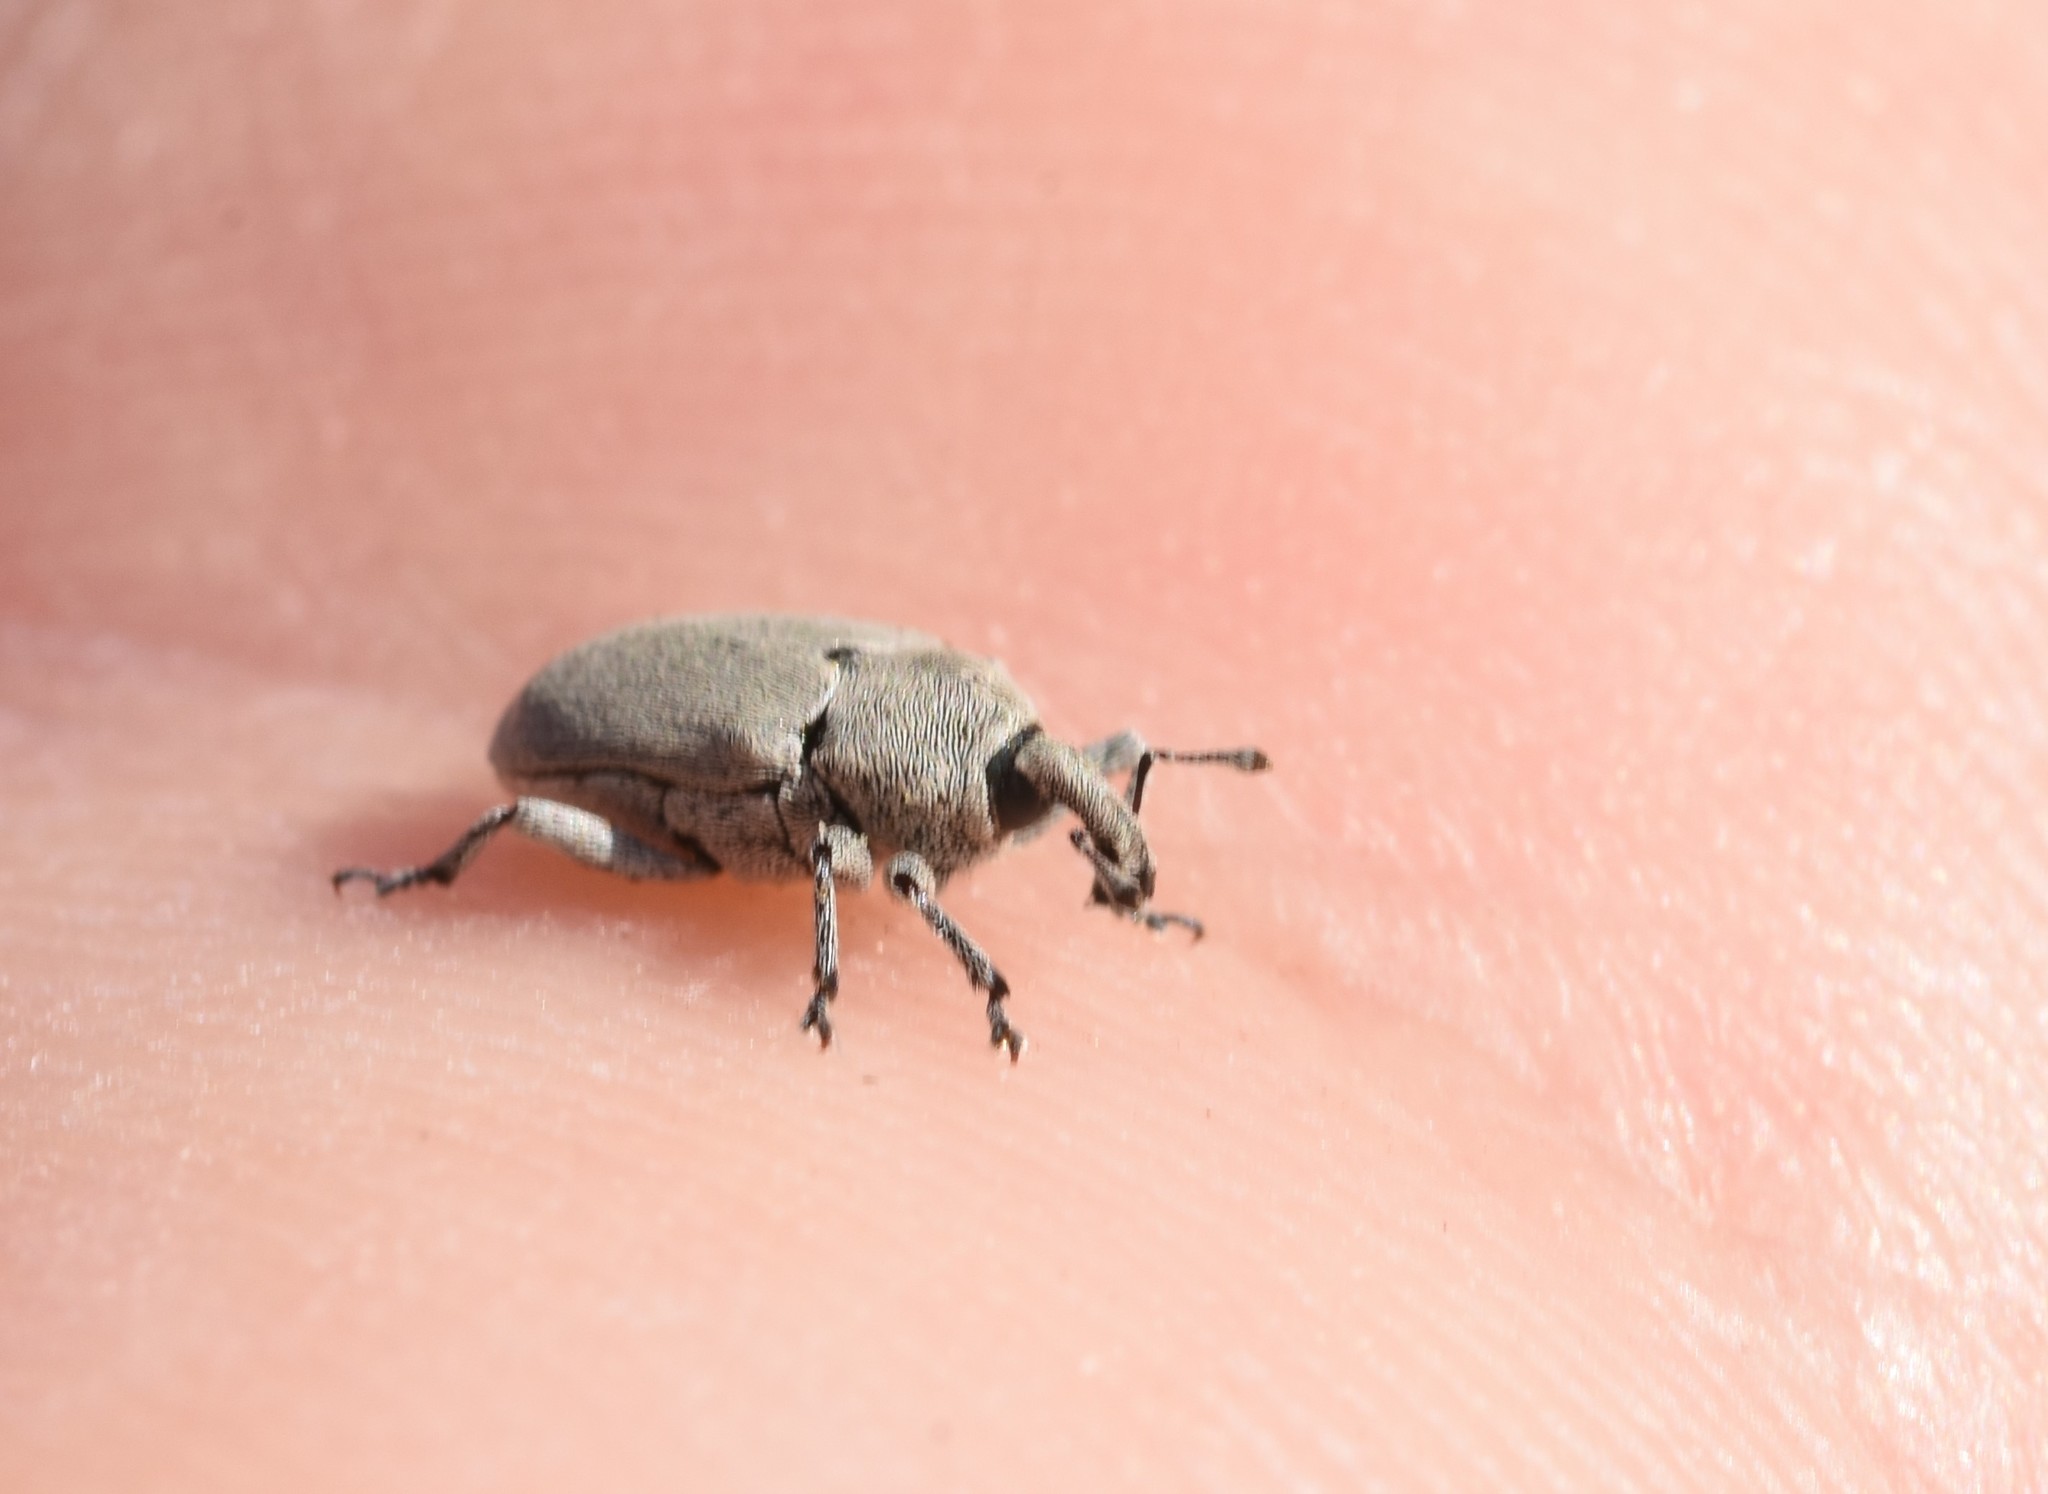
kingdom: Animalia
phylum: Arthropoda
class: Insecta
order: Coleoptera
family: Curculionidae
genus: Trichobaris
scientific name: Trichobaris compacta
